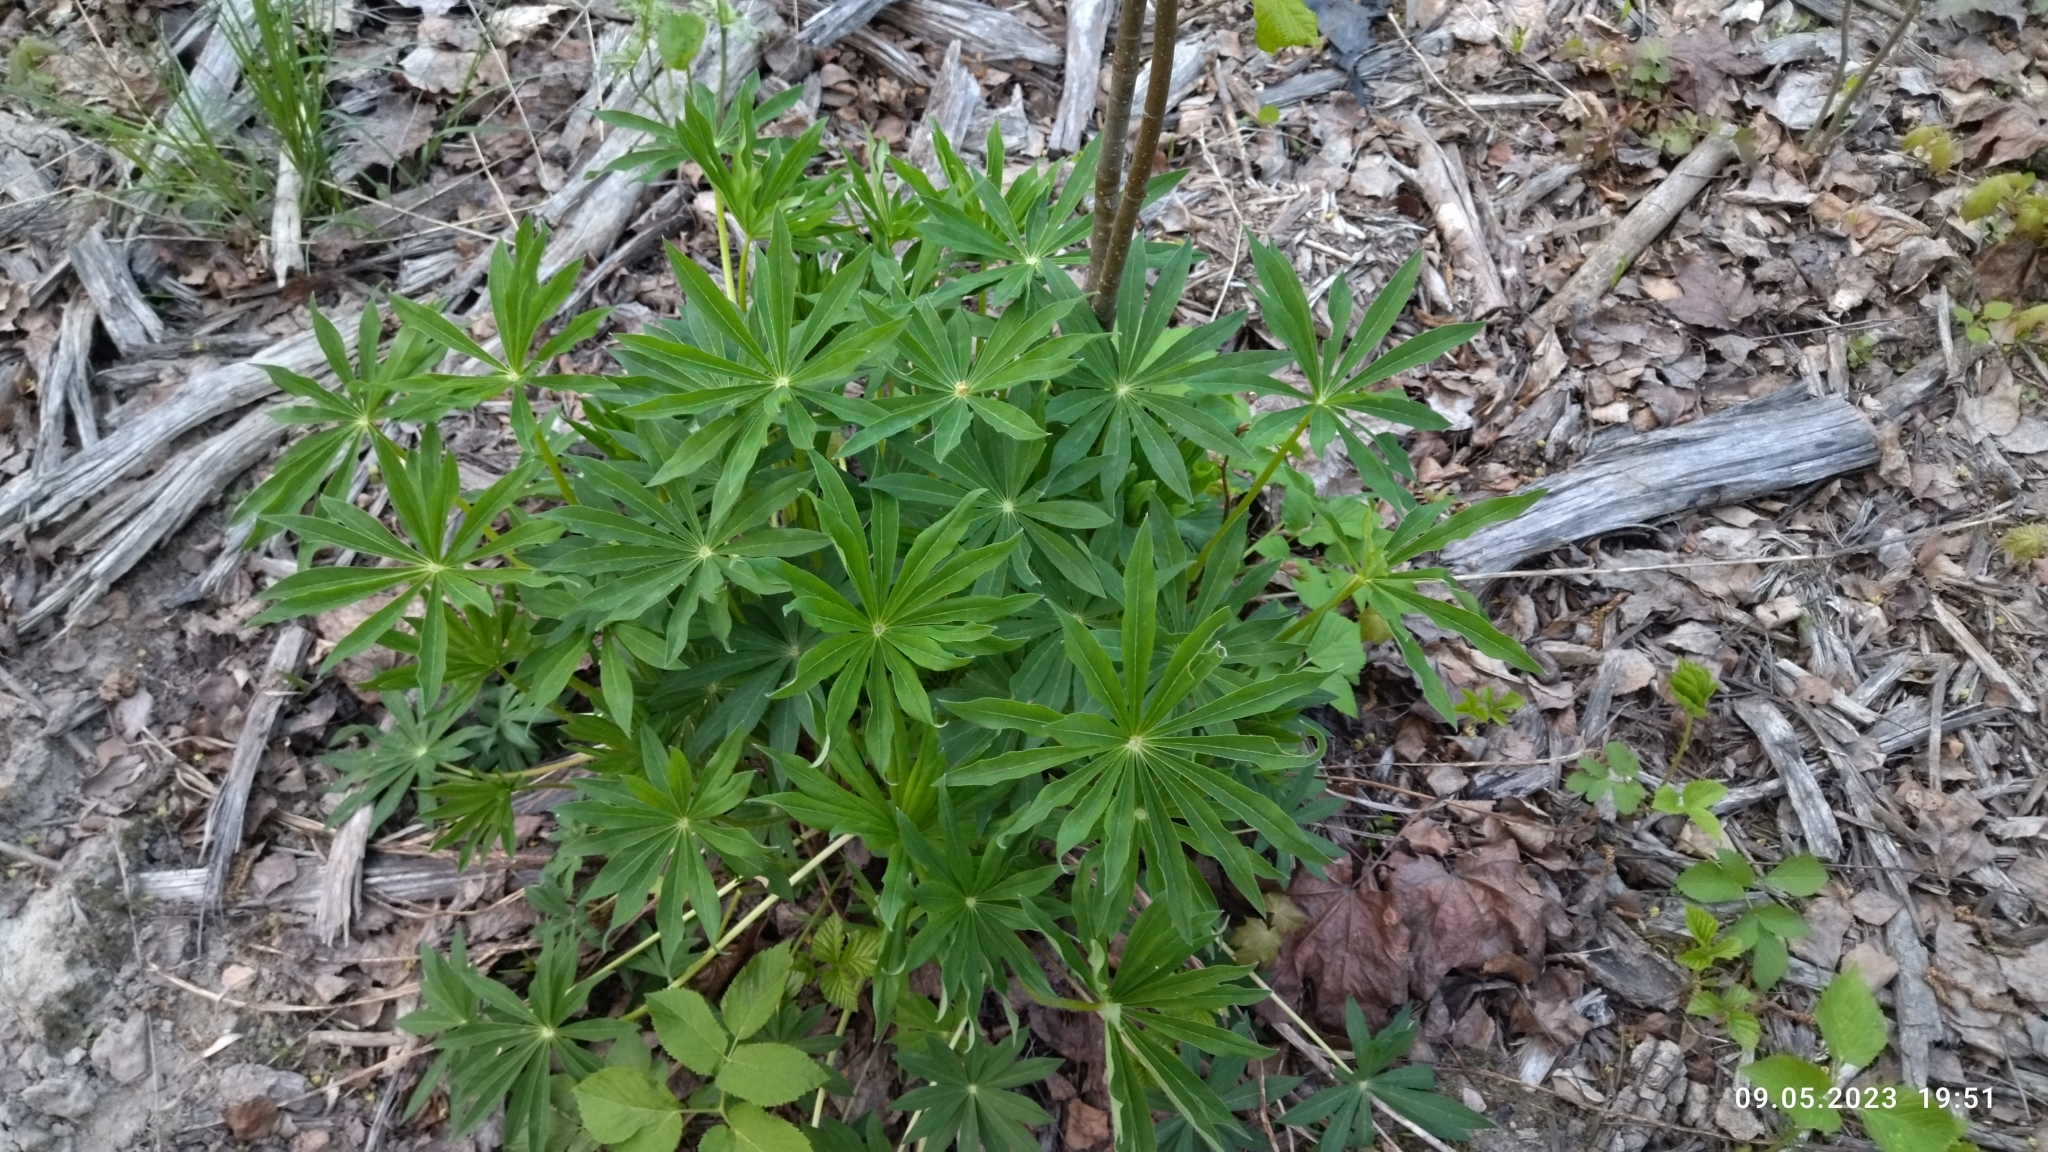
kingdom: Plantae
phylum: Tracheophyta
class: Magnoliopsida
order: Fabales
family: Fabaceae
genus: Lupinus
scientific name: Lupinus polyphyllus
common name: Garden lupin
